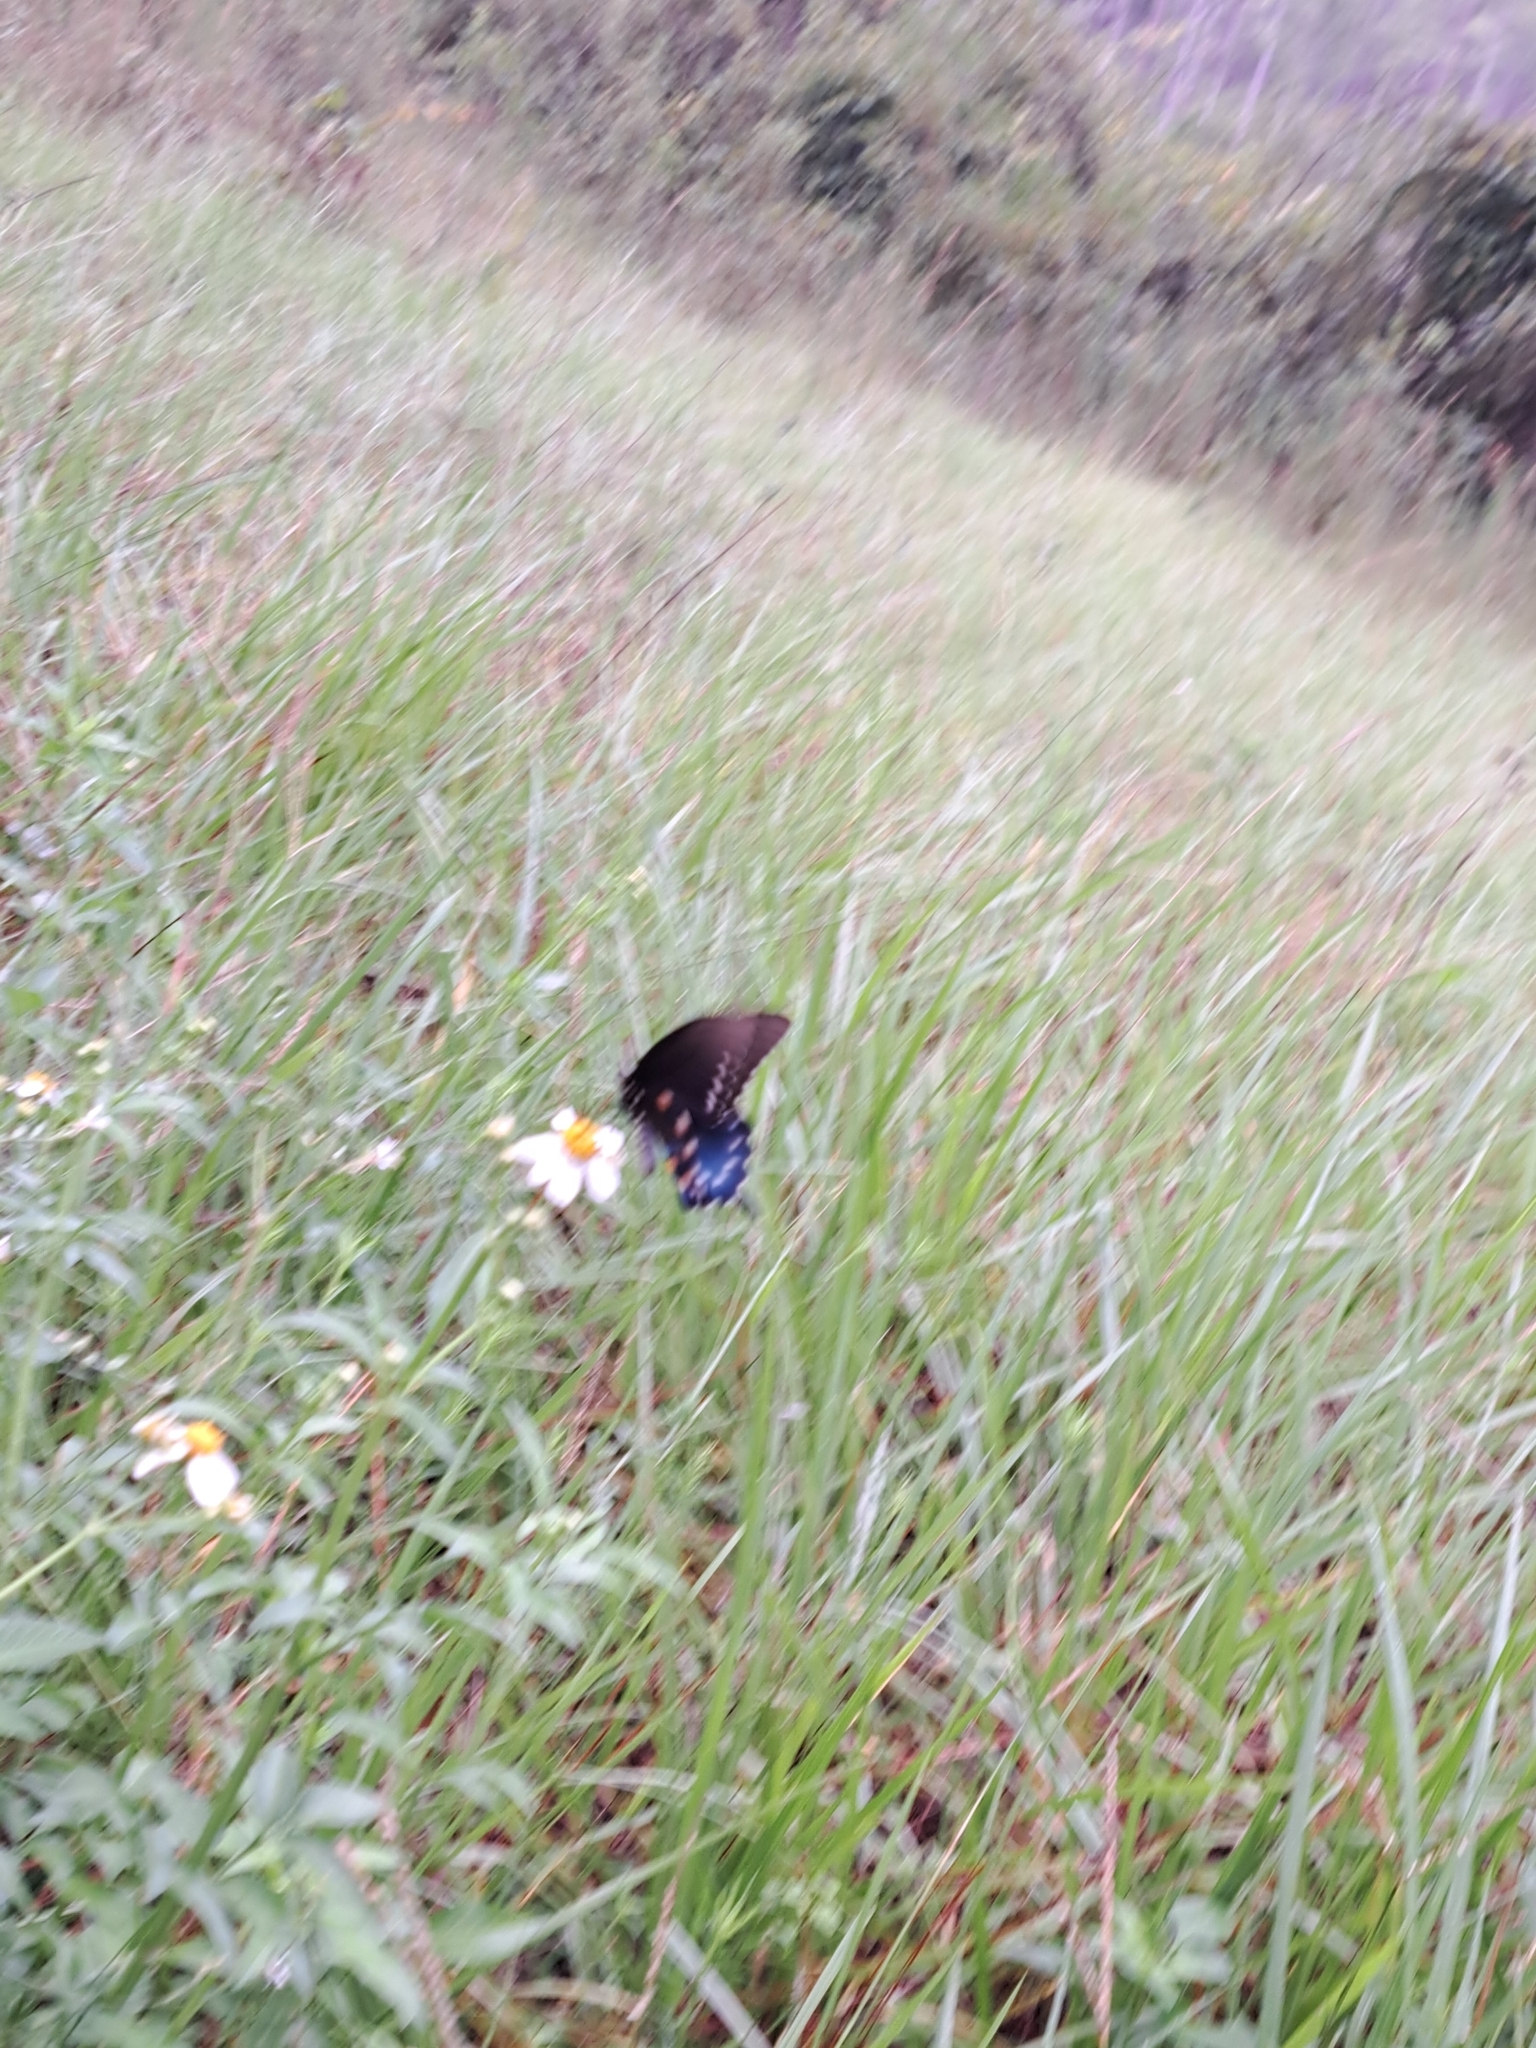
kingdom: Animalia
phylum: Arthropoda
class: Insecta
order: Lepidoptera
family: Papilionidae
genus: Battus
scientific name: Battus philenor
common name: Pipevine swallowtail
